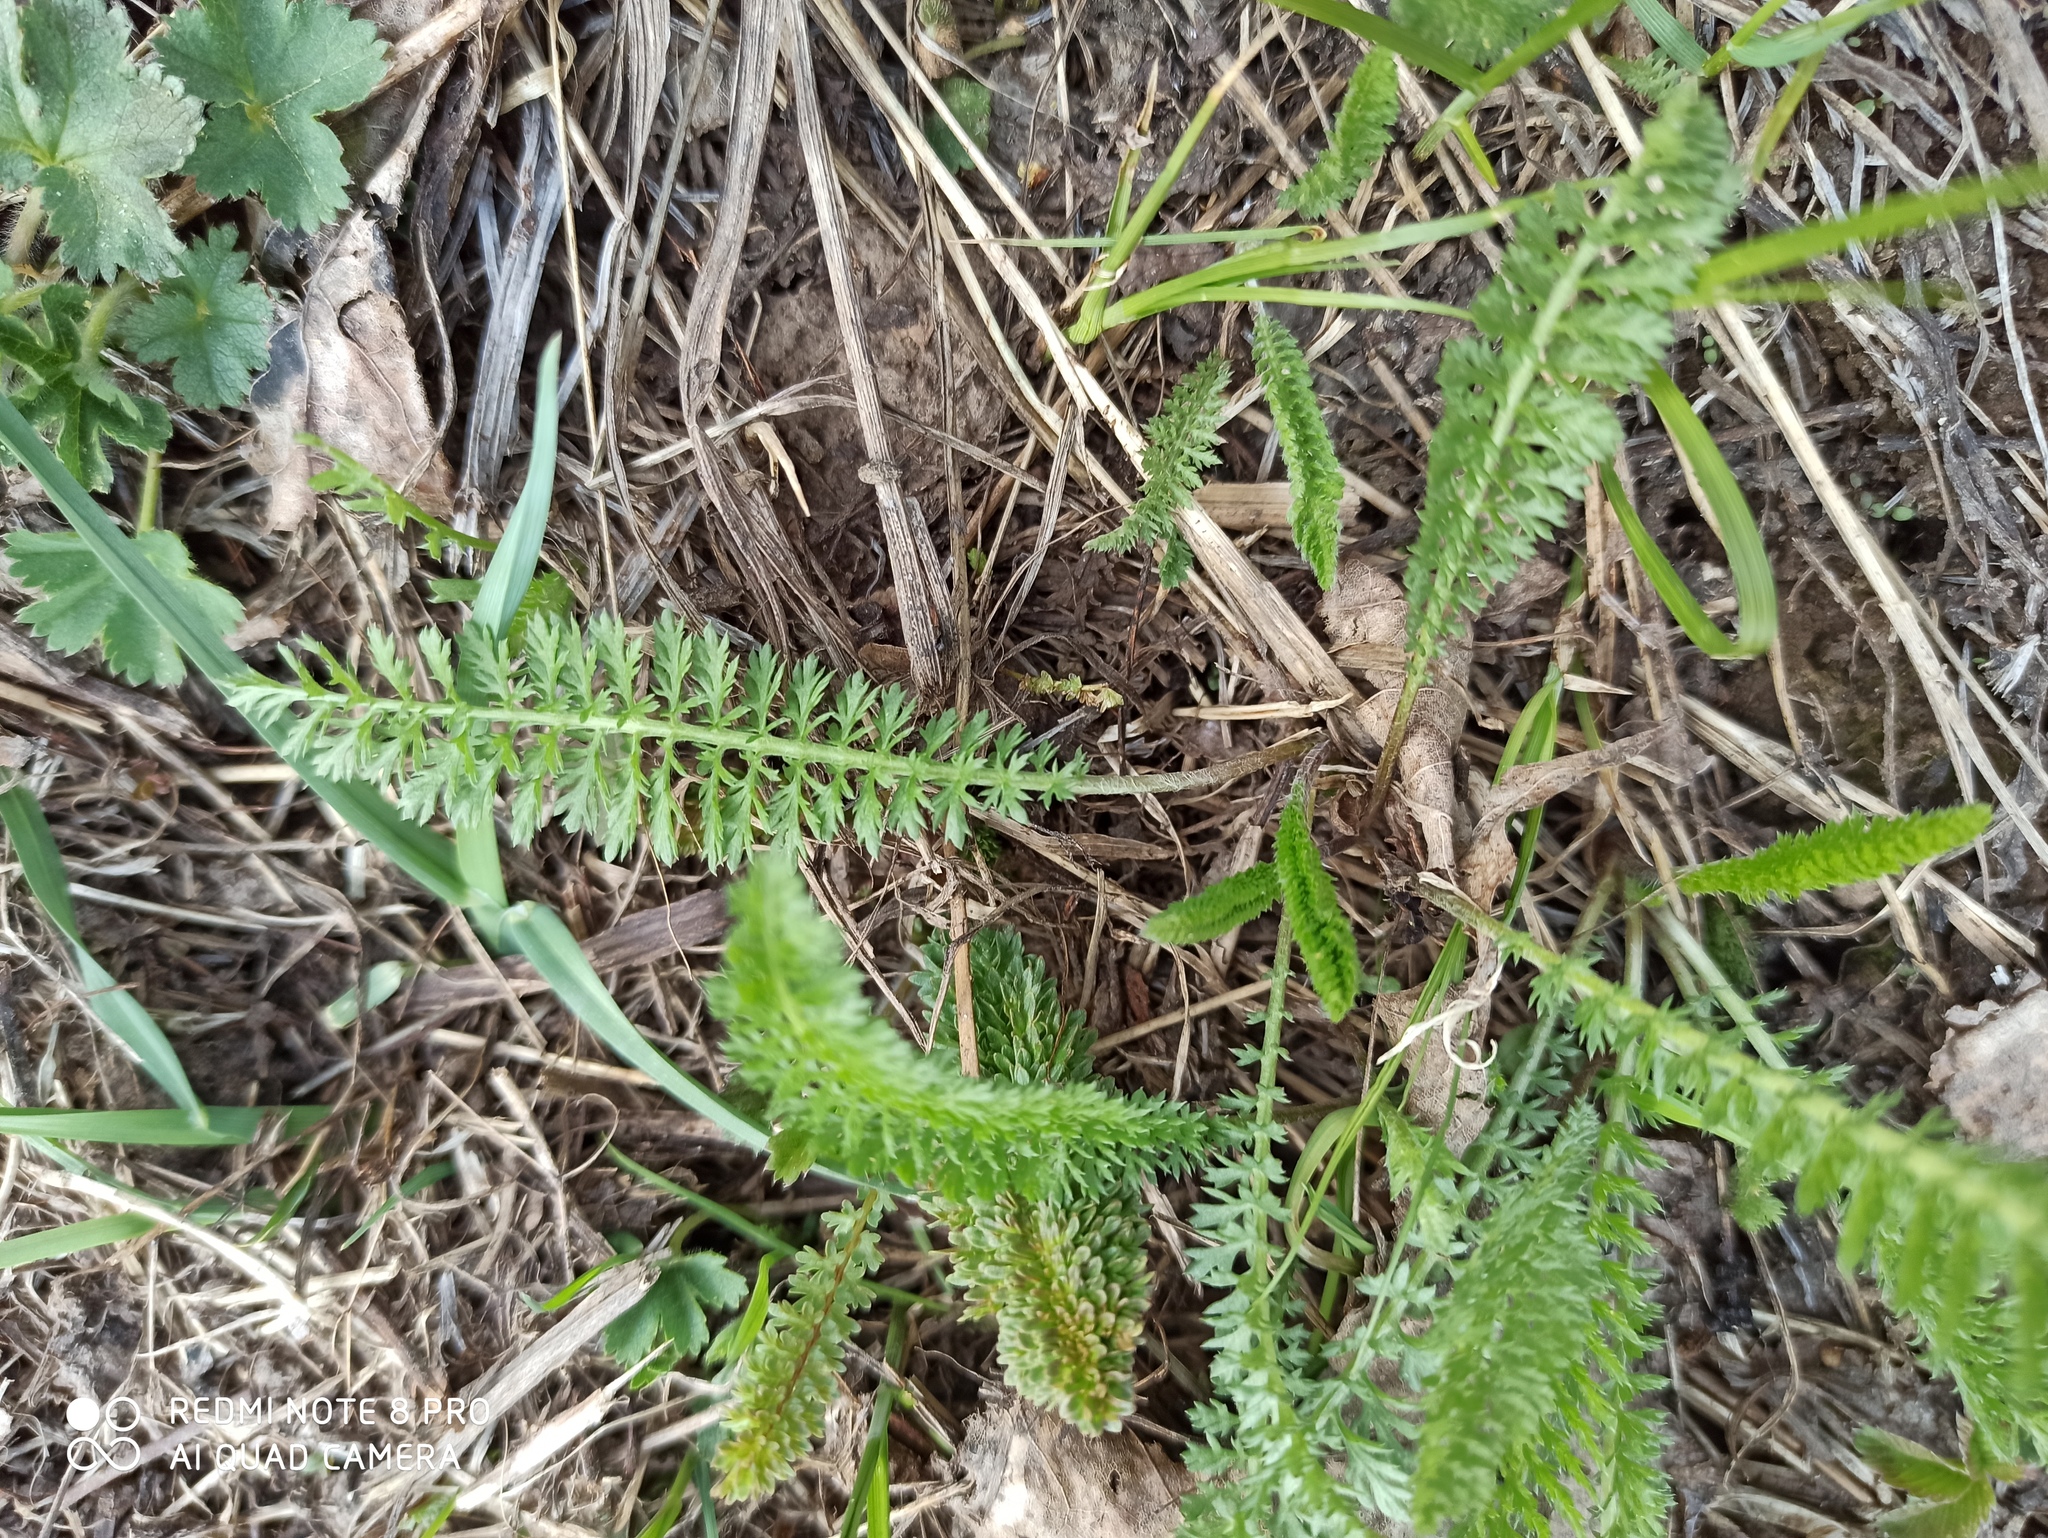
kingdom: Plantae
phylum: Tracheophyta
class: Magnoliopsida
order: Asterales
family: Asteraceae
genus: Achillea
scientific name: Achillea millefolium
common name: Yarrow
